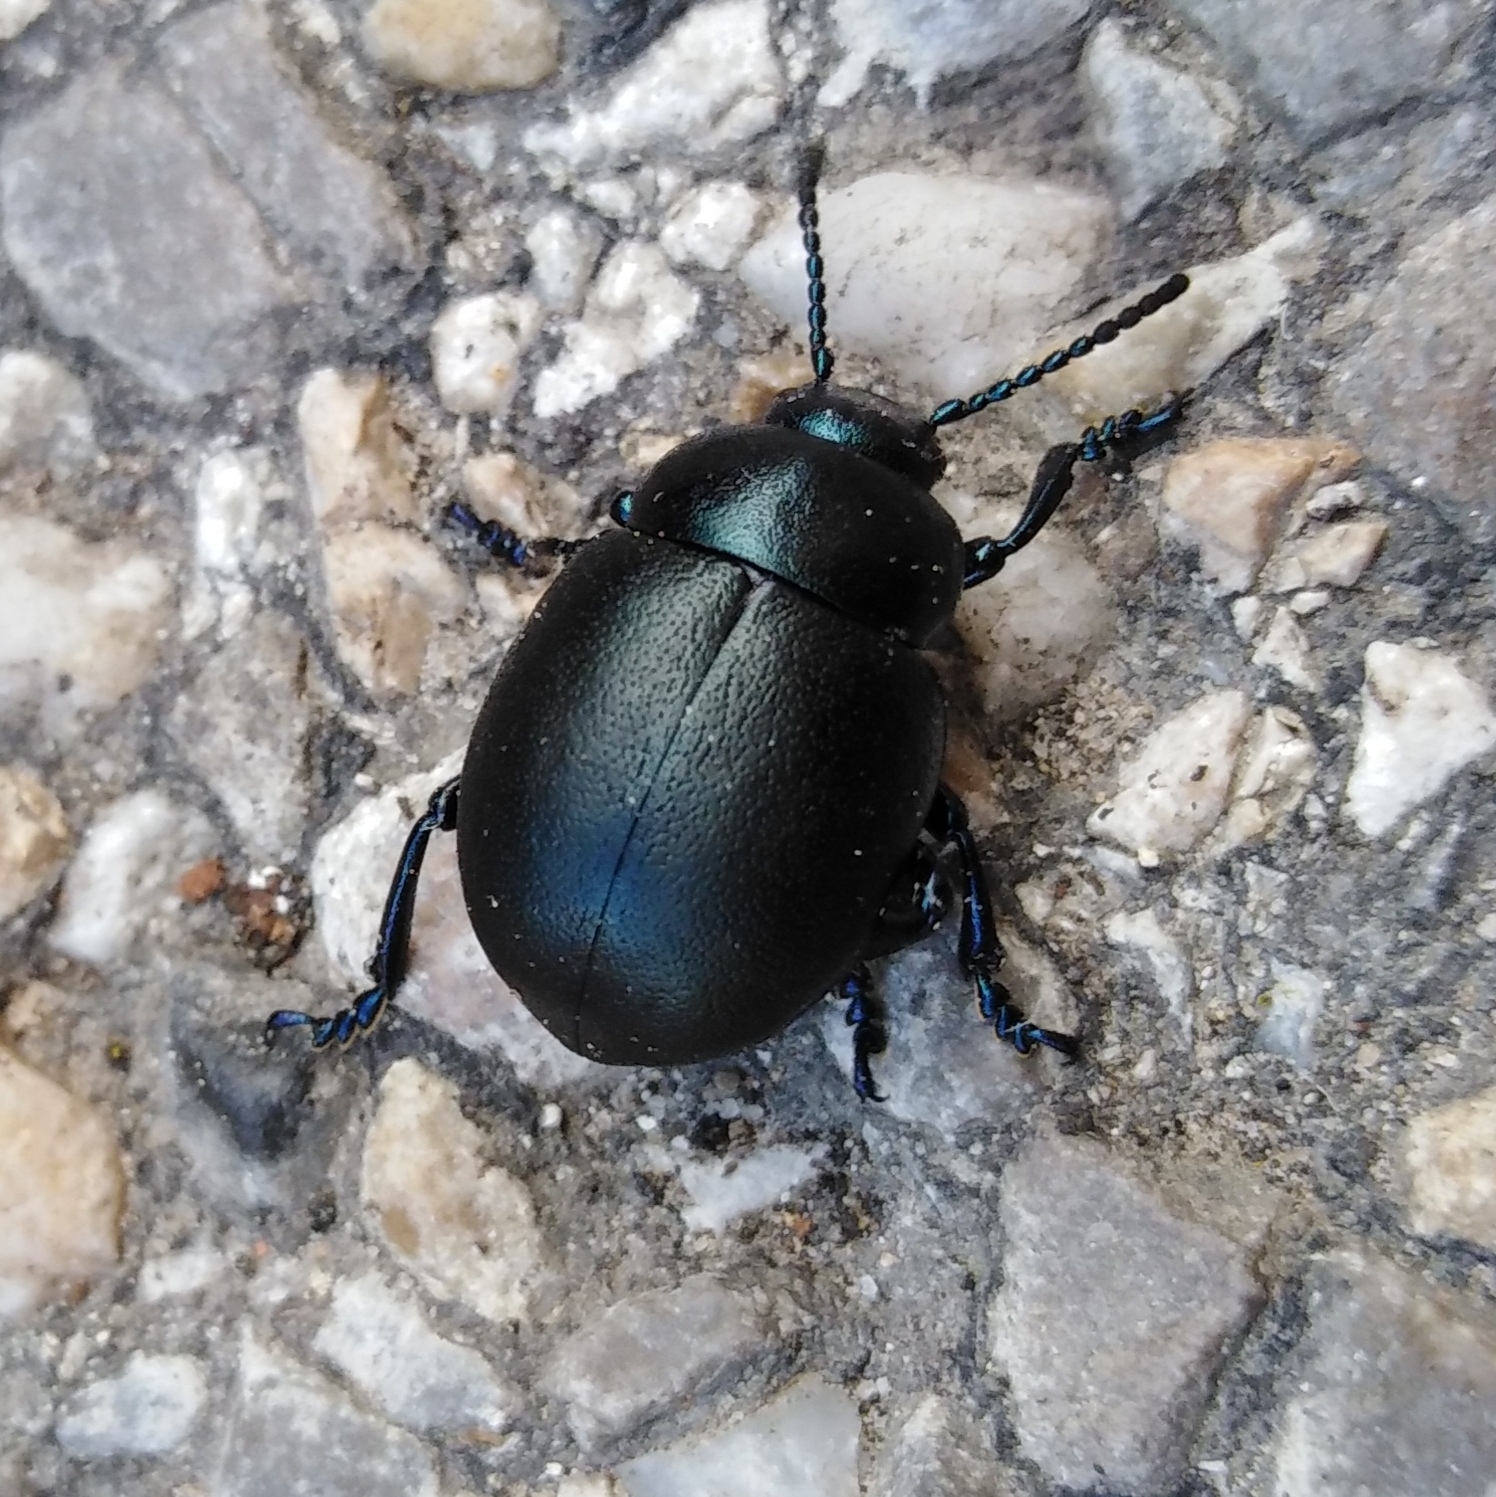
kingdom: Animalia
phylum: Arthropoda
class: Insecta
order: Coleoptera
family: Chrysomelidae
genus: Timarcha
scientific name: Timarcha tenebricosa
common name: Bloody-nosed beetle
